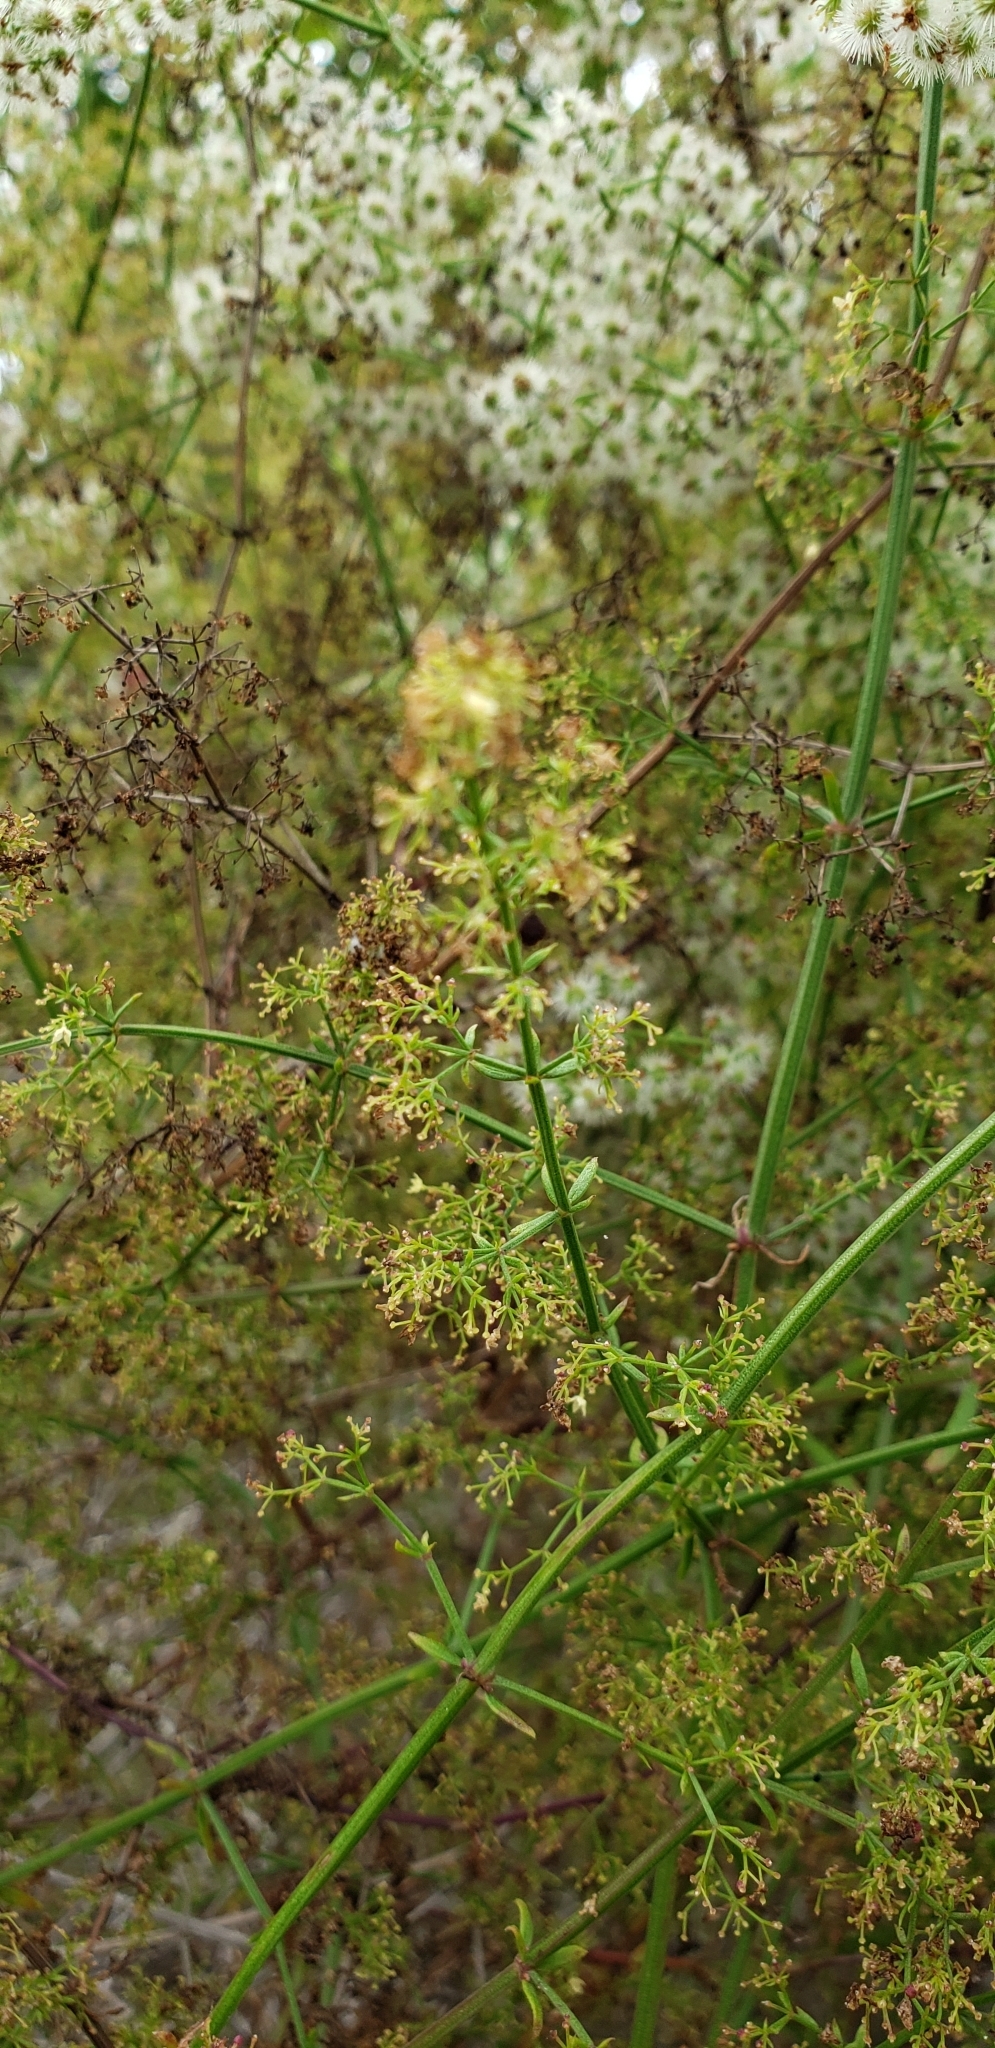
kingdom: Plantae
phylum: Tracheophyta
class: Magnoliopsida
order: Gentianales
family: Rubiaceae
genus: Galium
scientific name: Galium angustifolium
